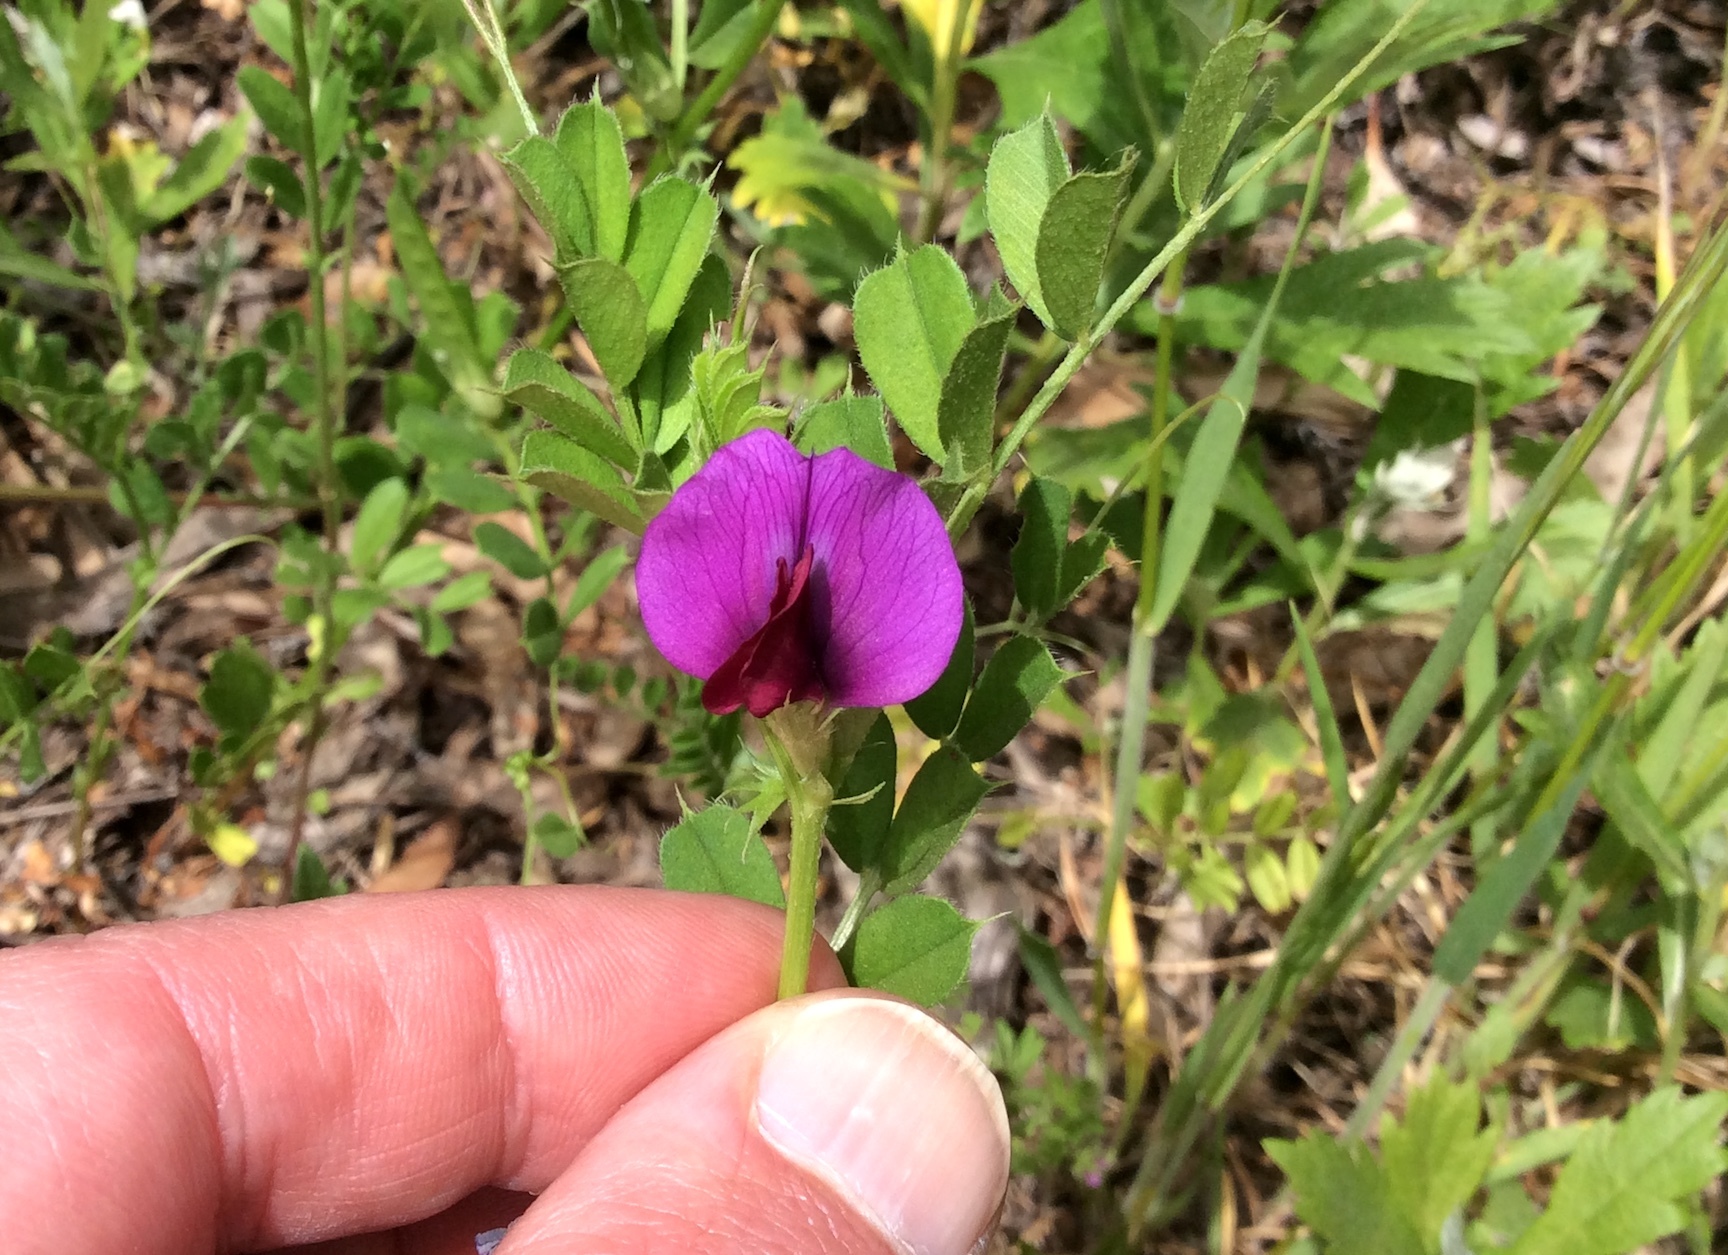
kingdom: Plantae
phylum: Tracheophyta
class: Magnoliopsida
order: Fabales
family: Fabaceae
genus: Vicia
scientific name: Vicia sativa
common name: Garden vetch
